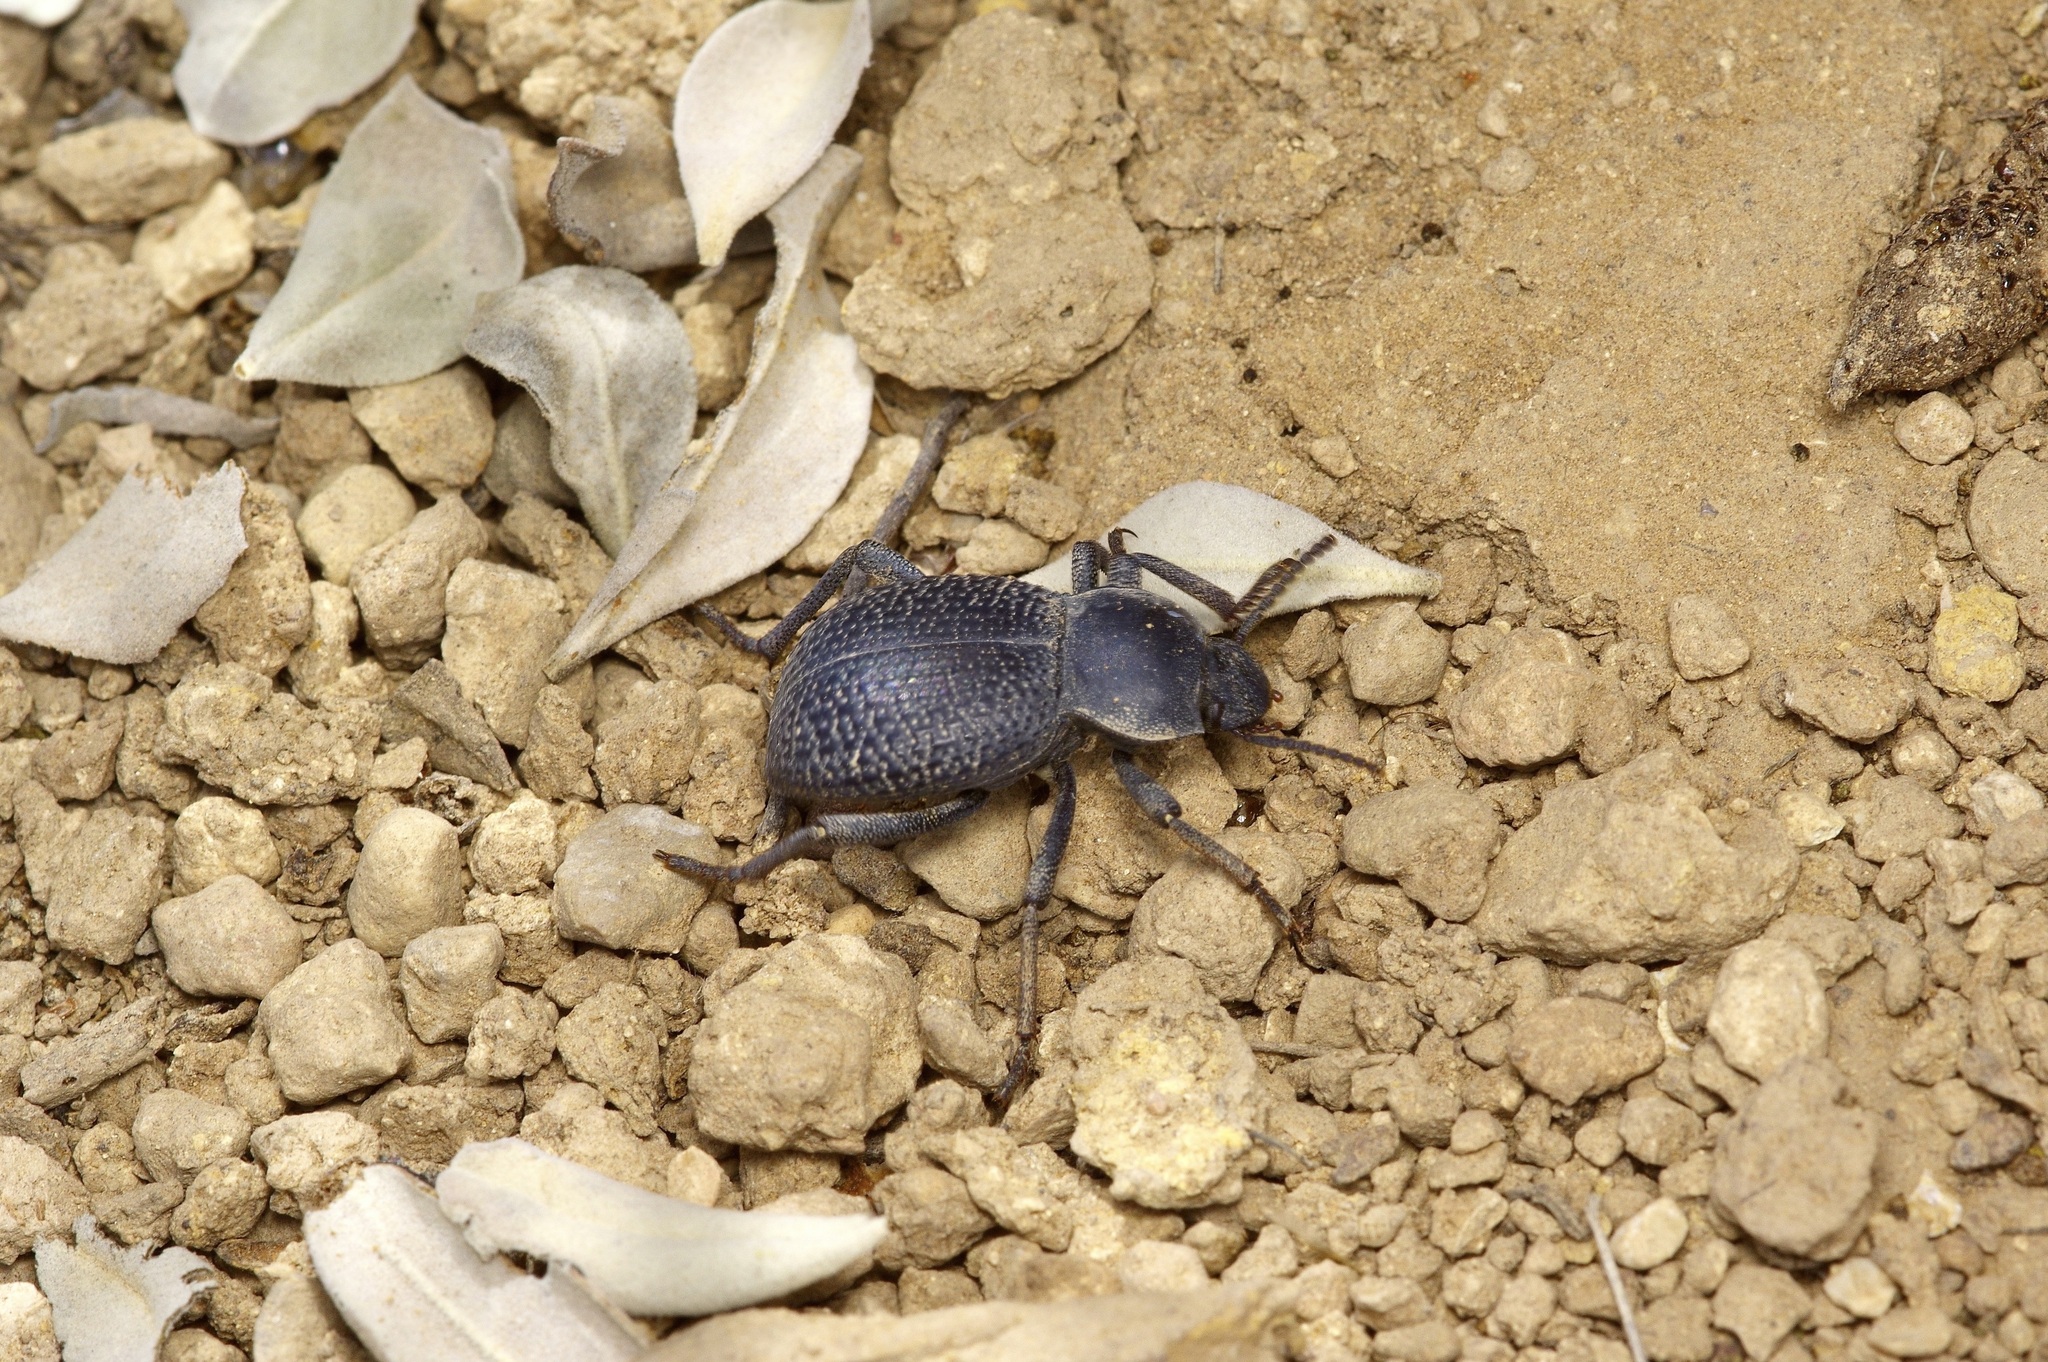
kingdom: Animalia
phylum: Arthropoda
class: Insecta
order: Coleoptera
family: Tenebrionidae
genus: Cryptoglossa
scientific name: Cryptoglossa infausta
